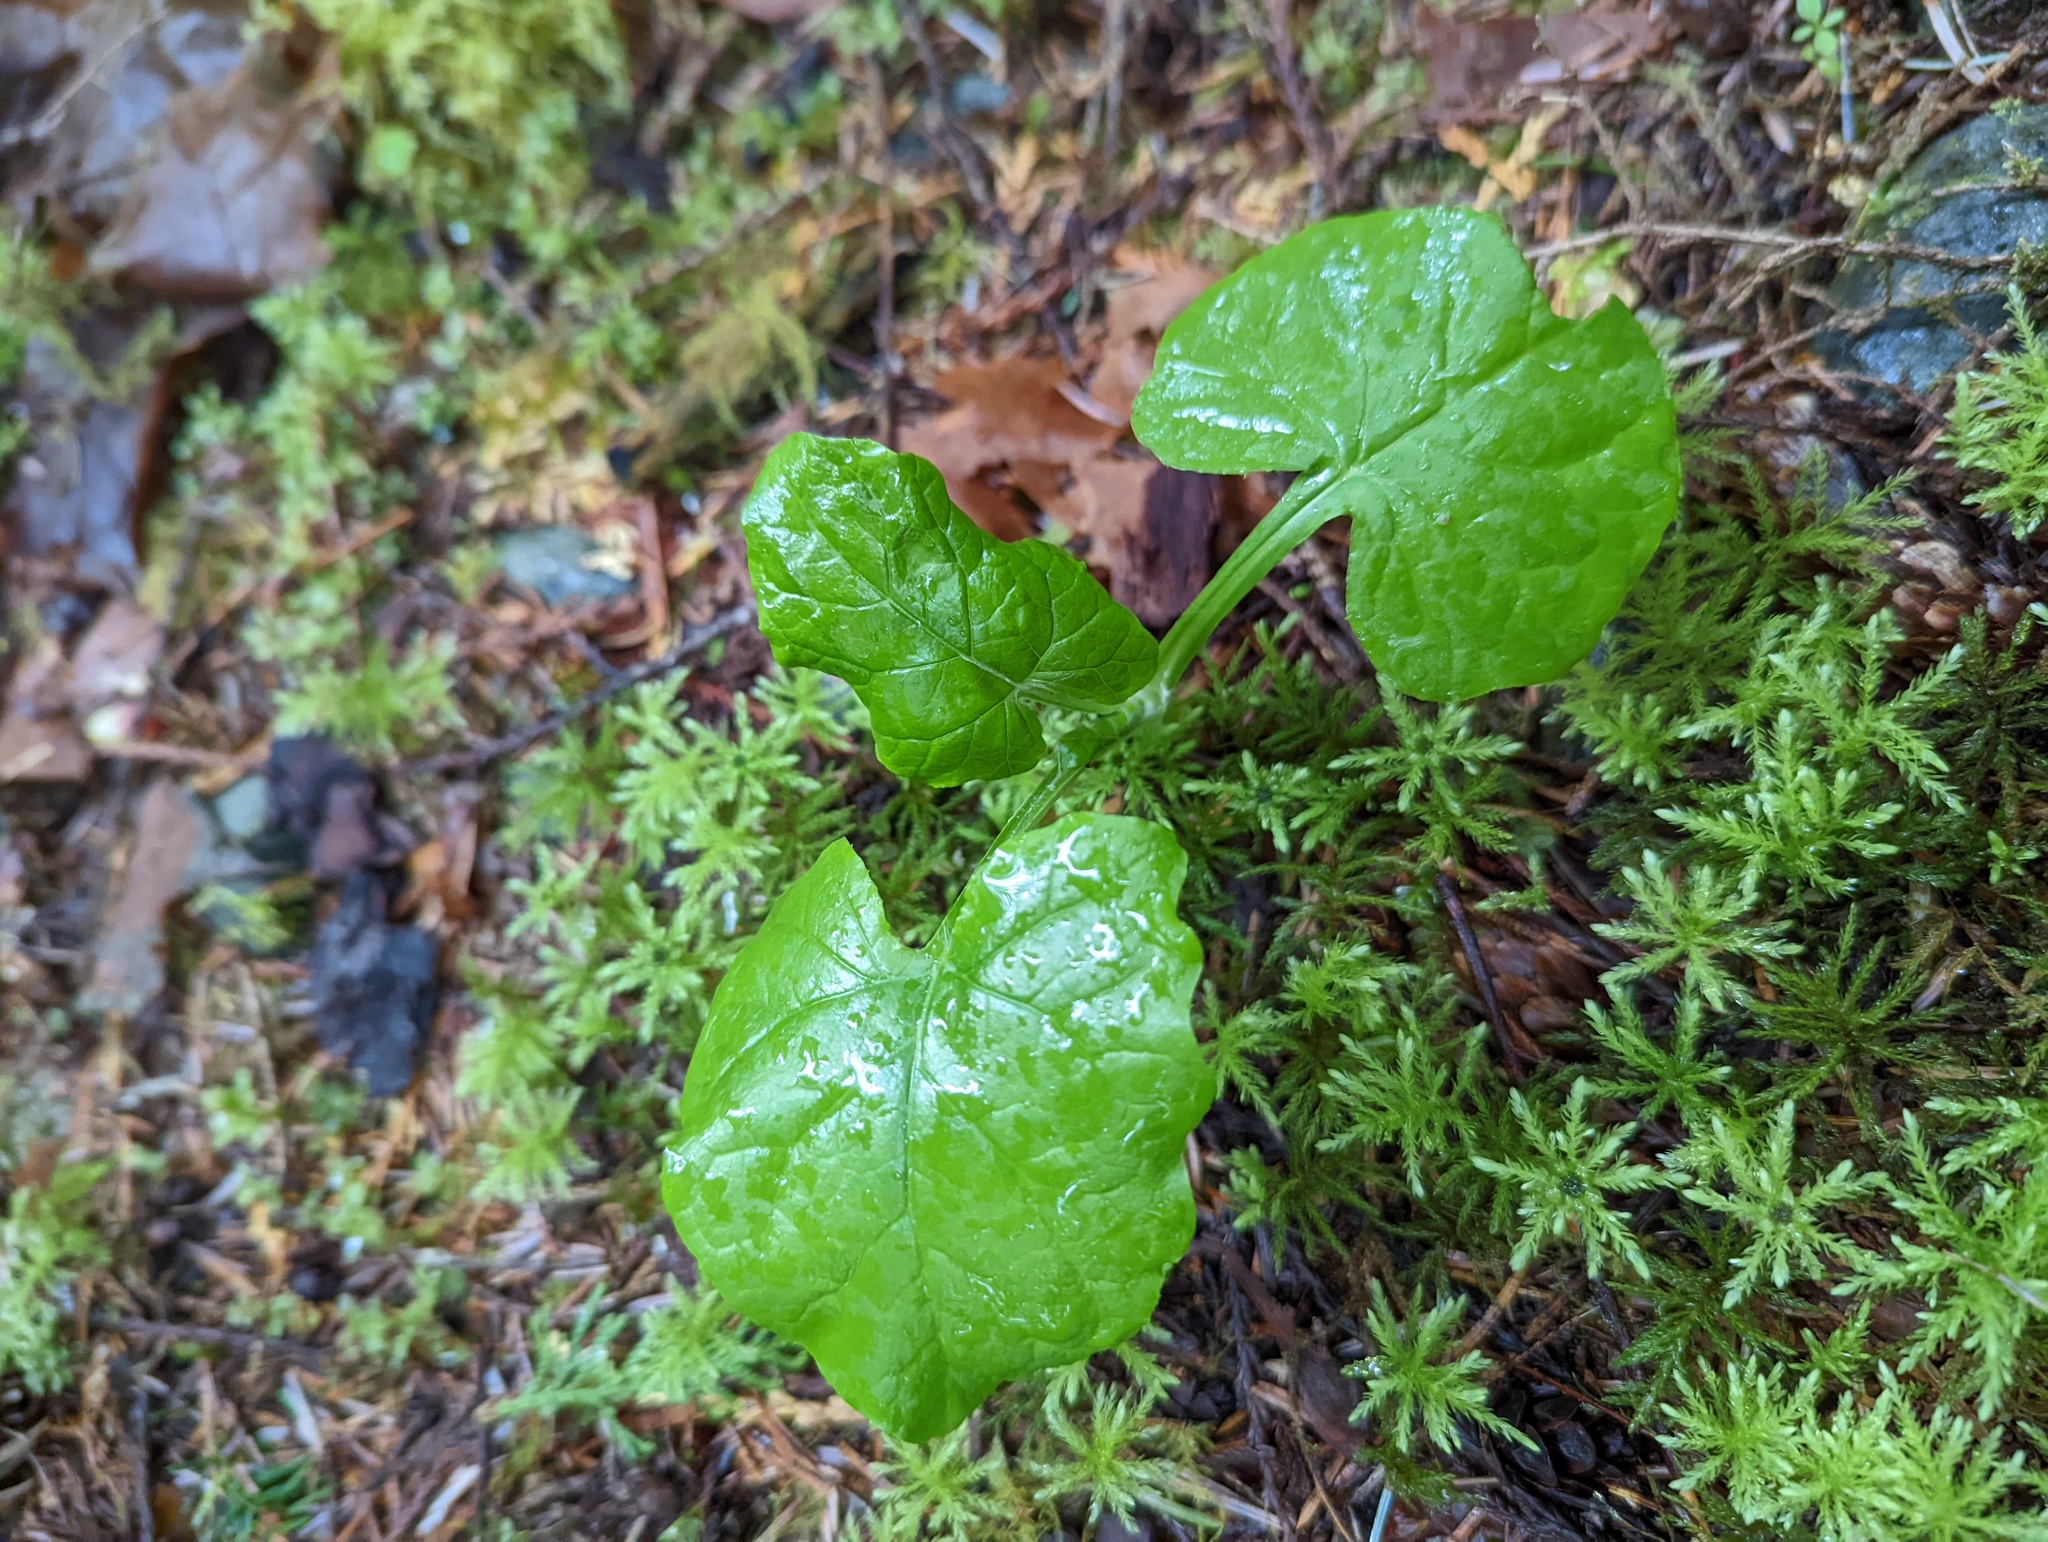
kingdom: Plantae
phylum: Tracheophyta
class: Magnoliopsida
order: Asterales
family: Asteraceae
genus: Adenocaulon
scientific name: Adenocaulon bicolor
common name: Trailplant
